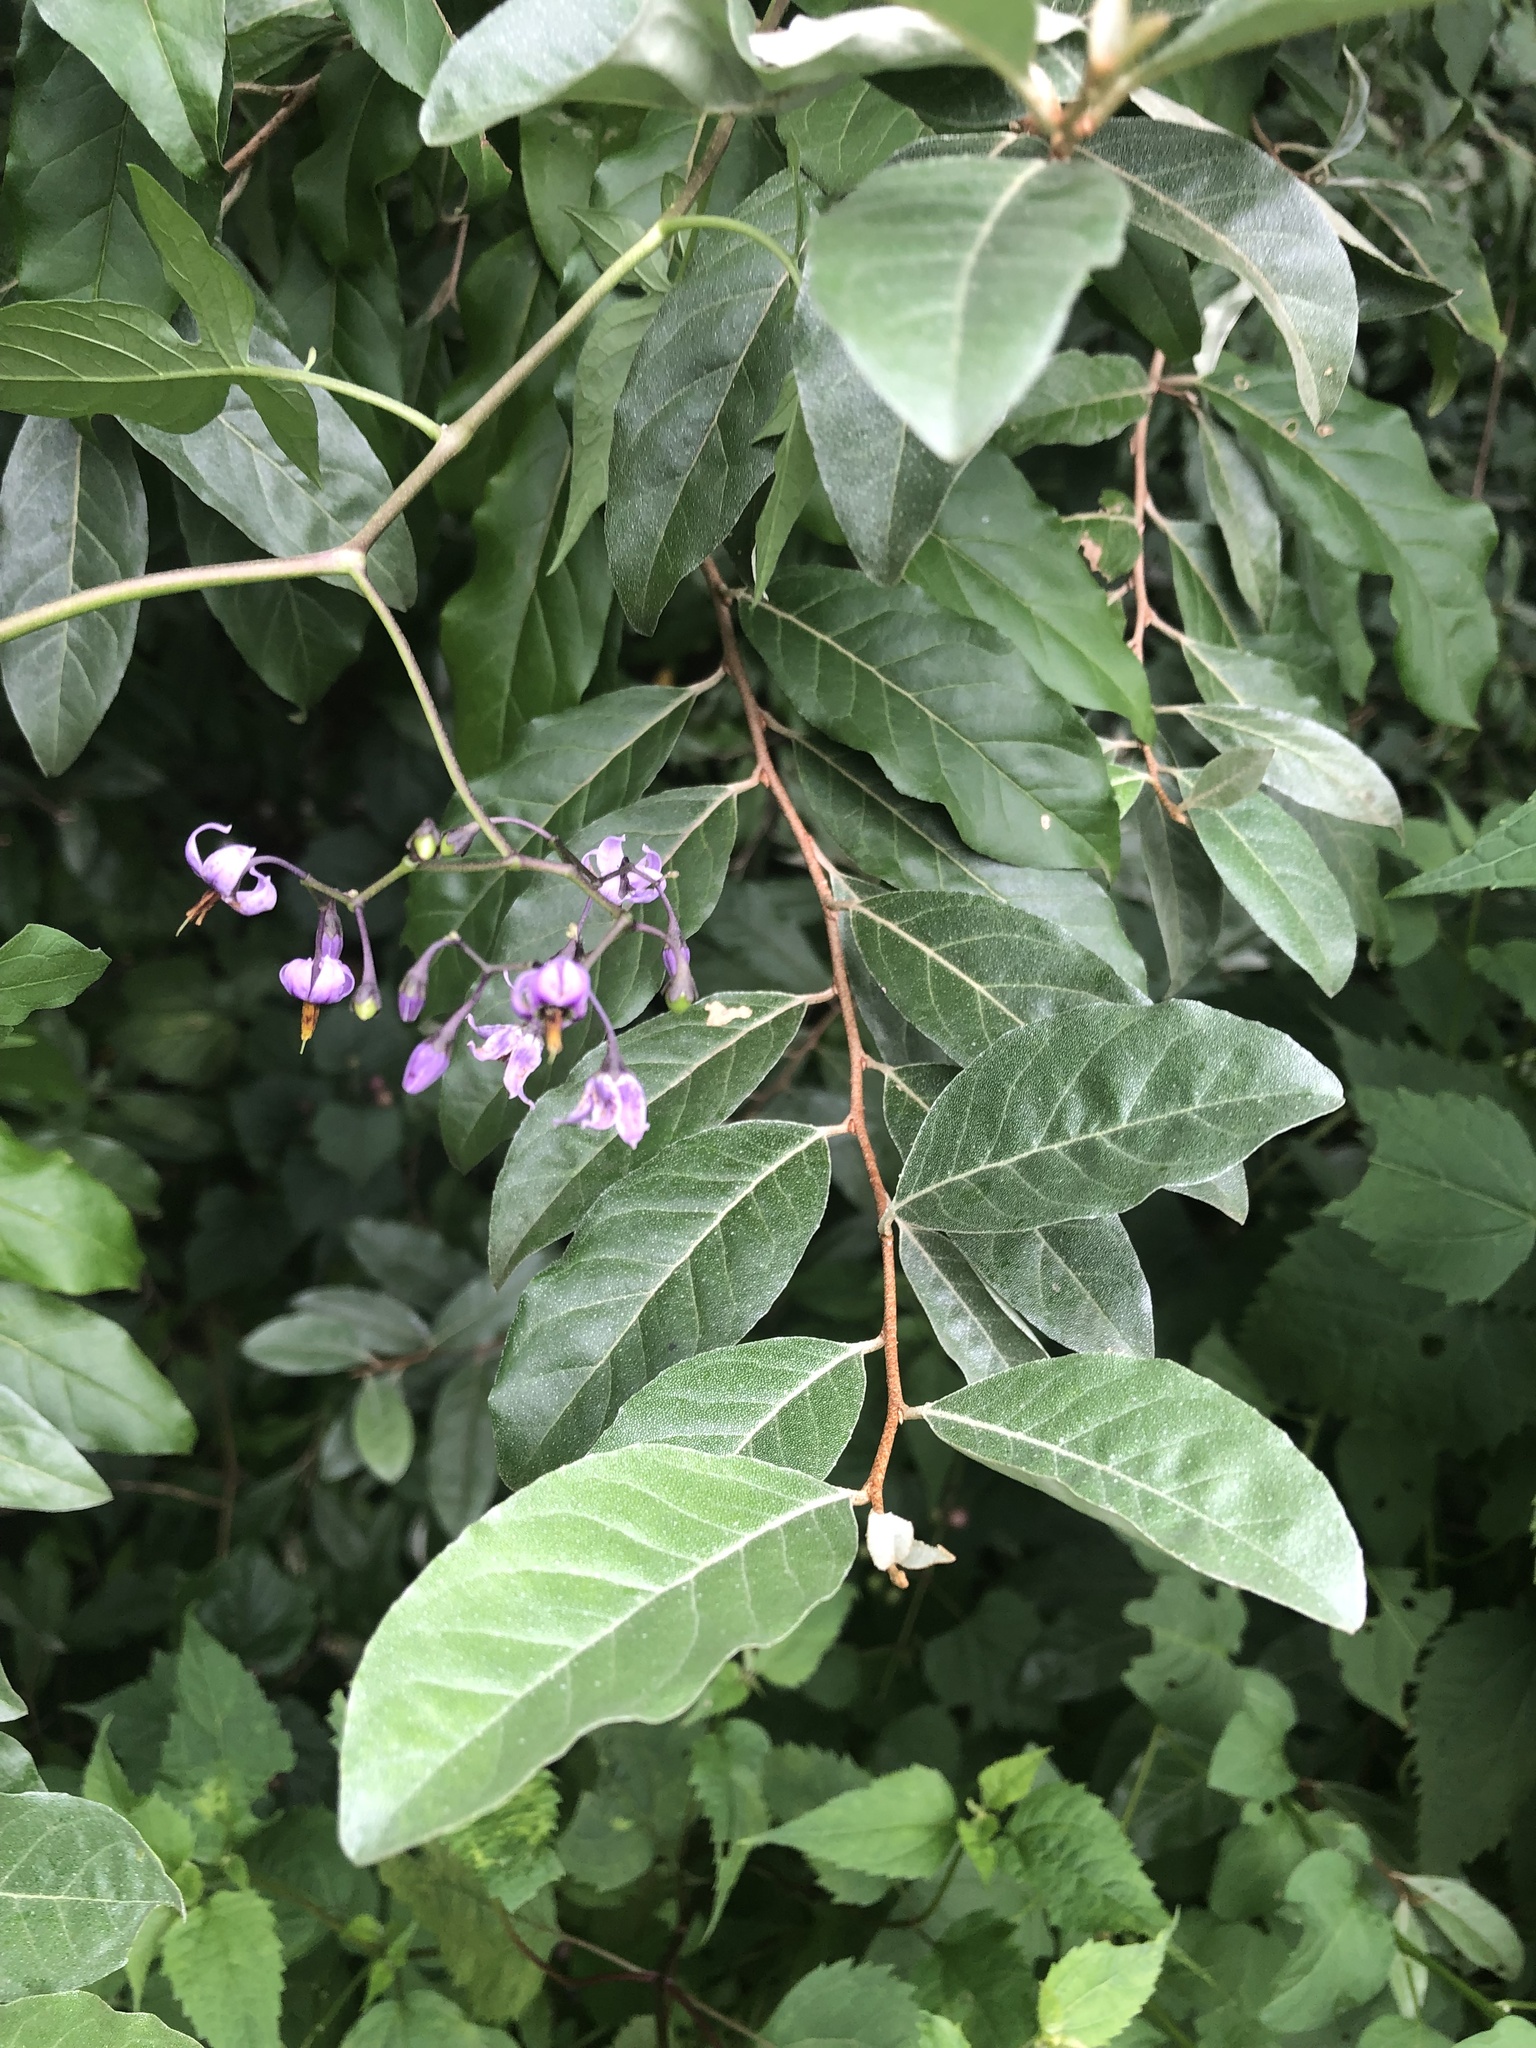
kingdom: Plantae
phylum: Tracheophyta
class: Magnoliopsida
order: Rosales
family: Elaeagnaceae
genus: Elaeagnus
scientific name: Elaeagnus umbellata
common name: Autumn olive
